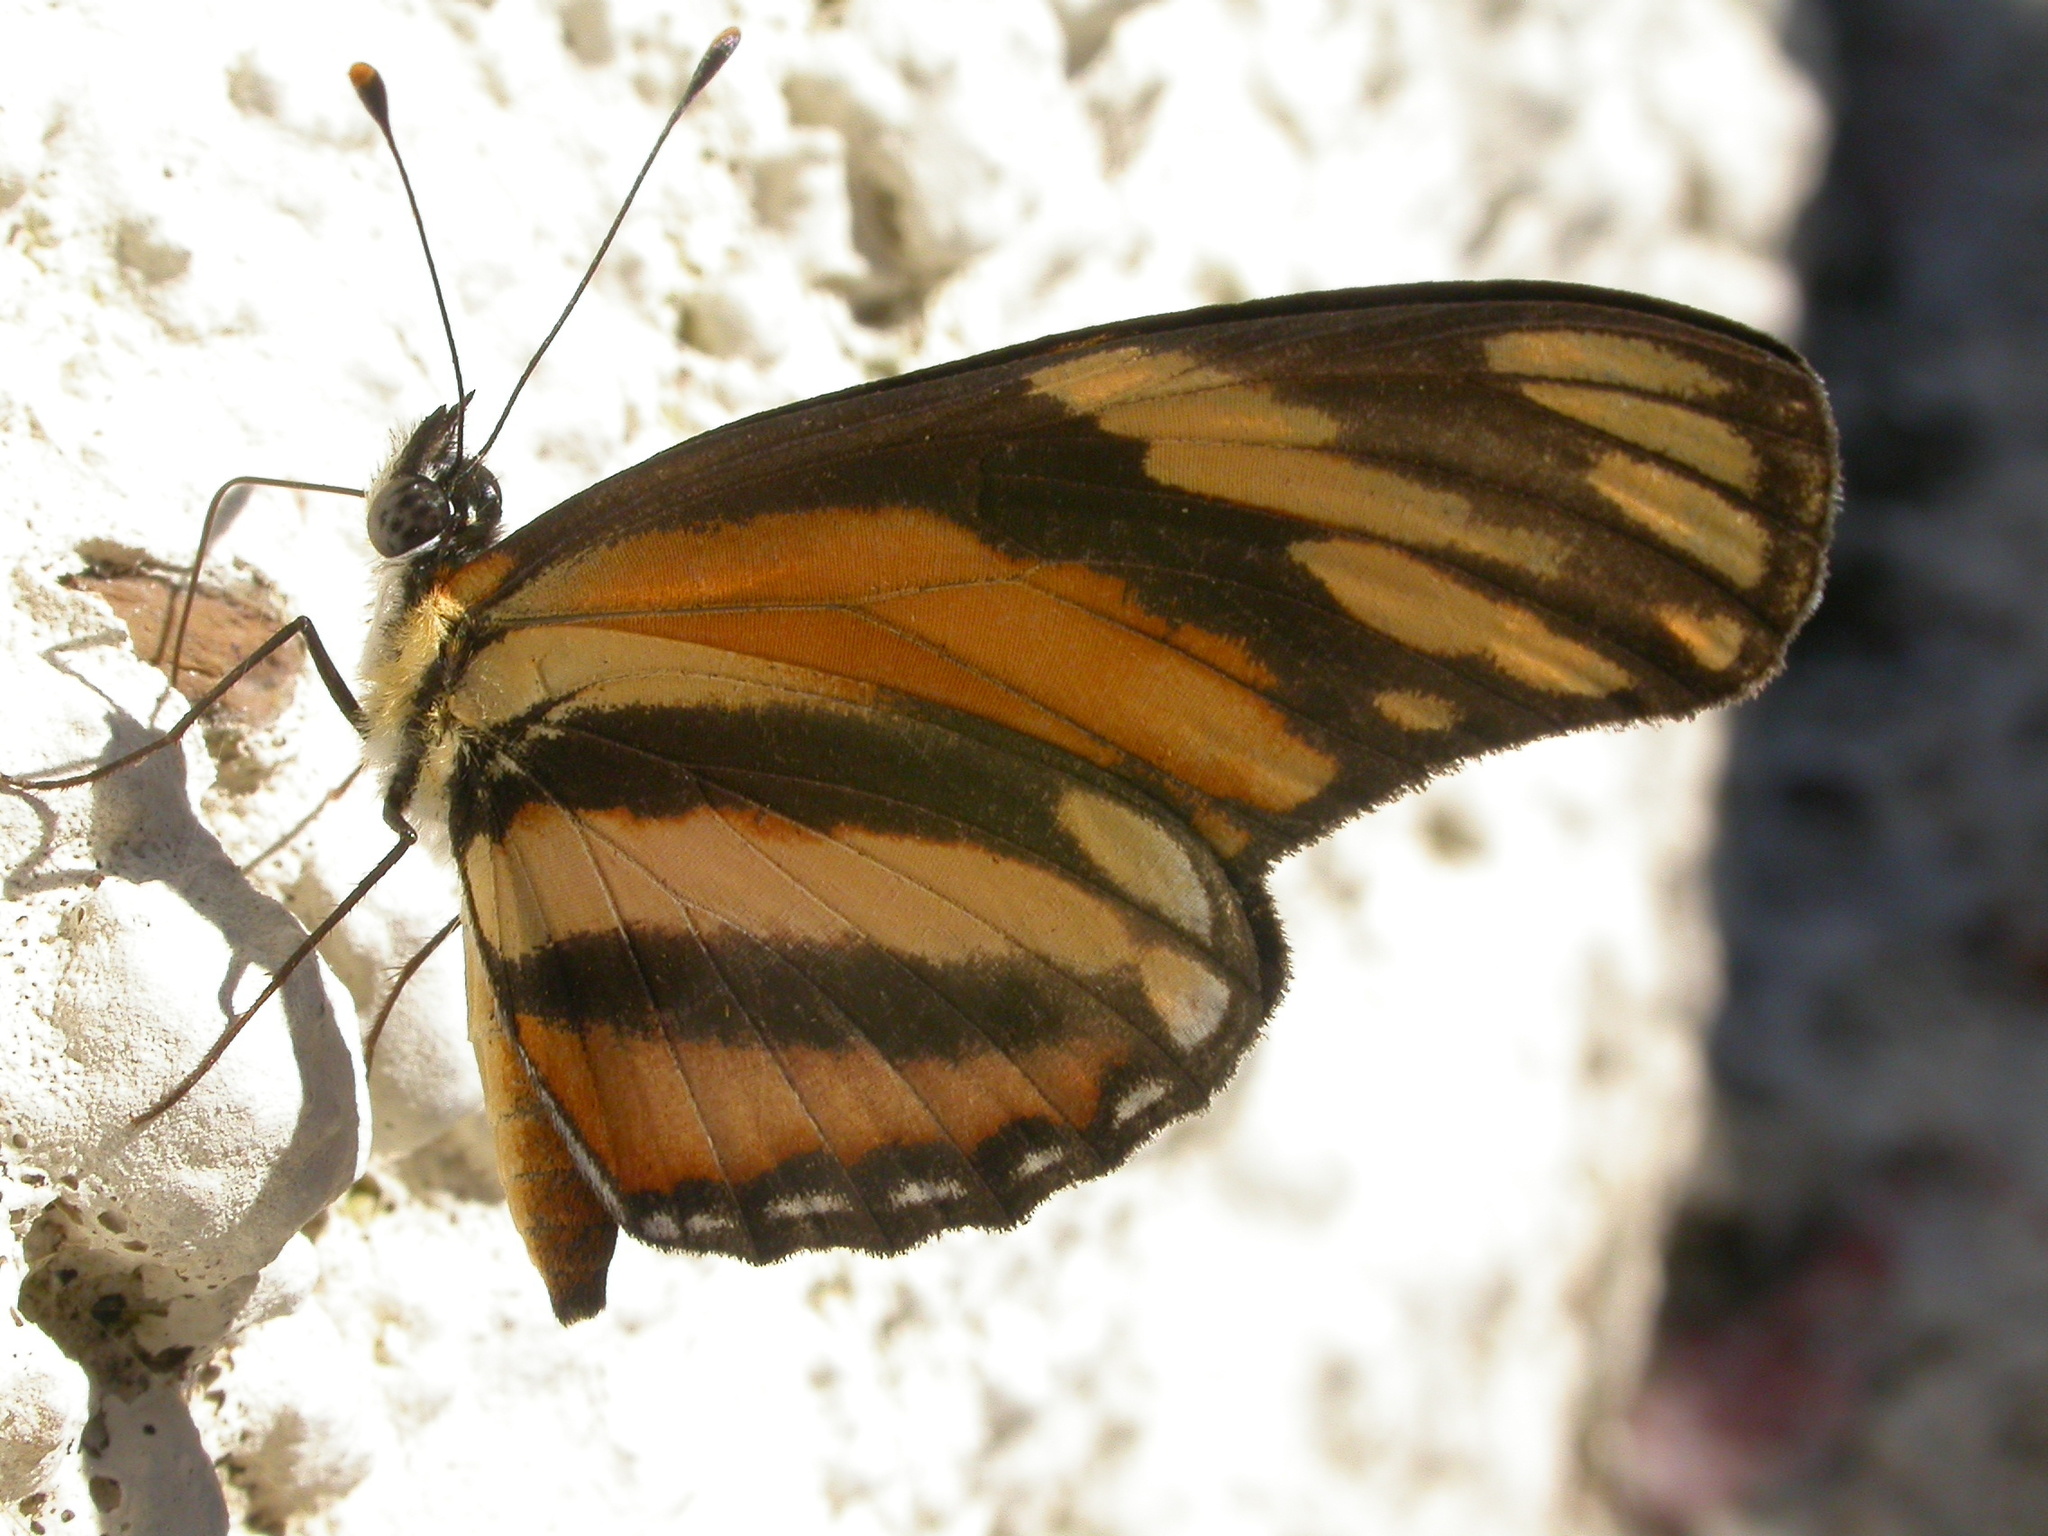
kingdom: Animalia
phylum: Arthropoda
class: Insecta
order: Lepidoptera
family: Nymphalidae
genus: Eresia
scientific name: Eresia phillyra
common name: Longwing crescent
